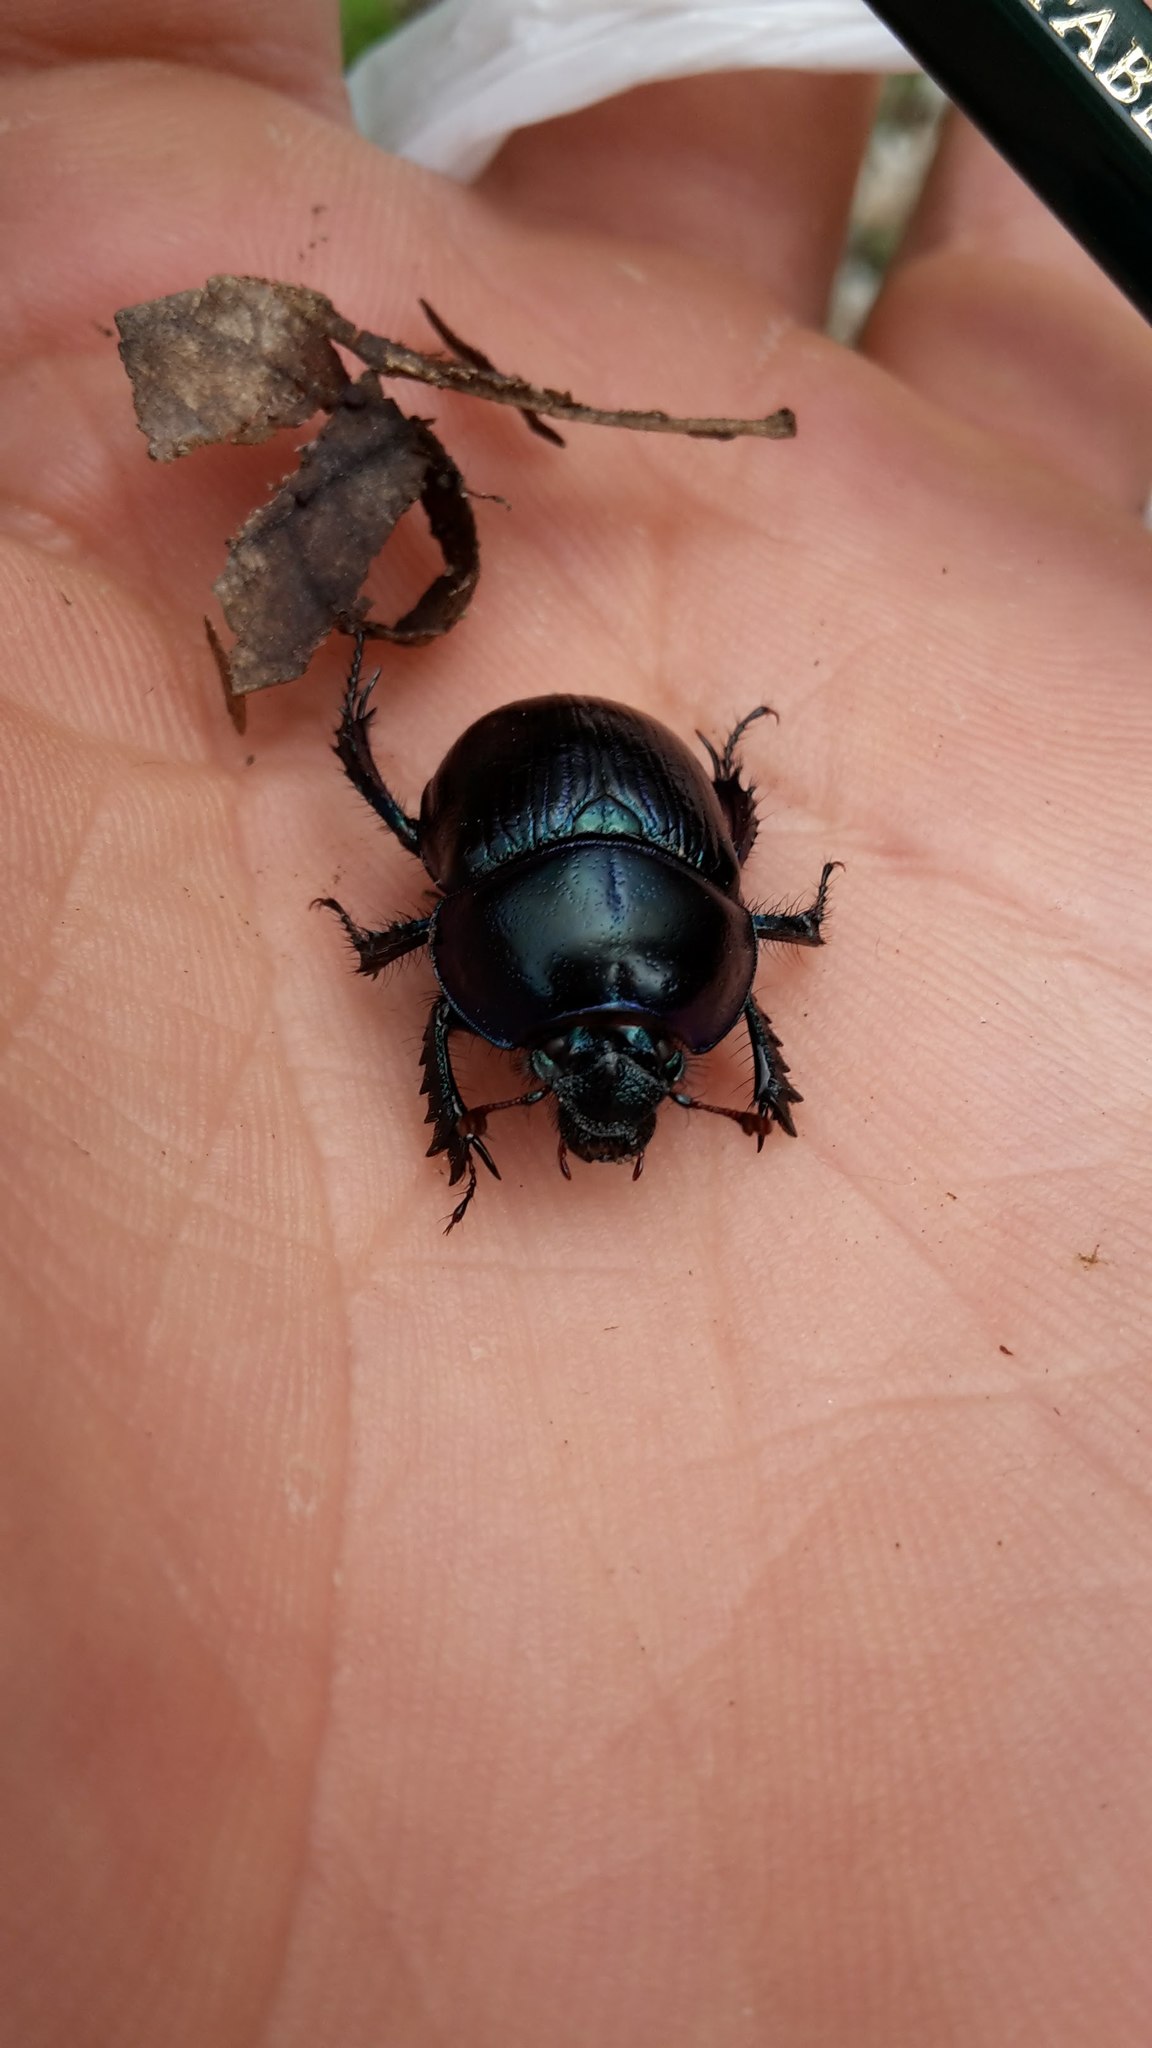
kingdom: Animalia
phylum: Arthropoda
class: Insecta
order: Coleoptera
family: Geotrupidae
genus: Anoplotrupes
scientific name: Anoplotrupes stercorosus
